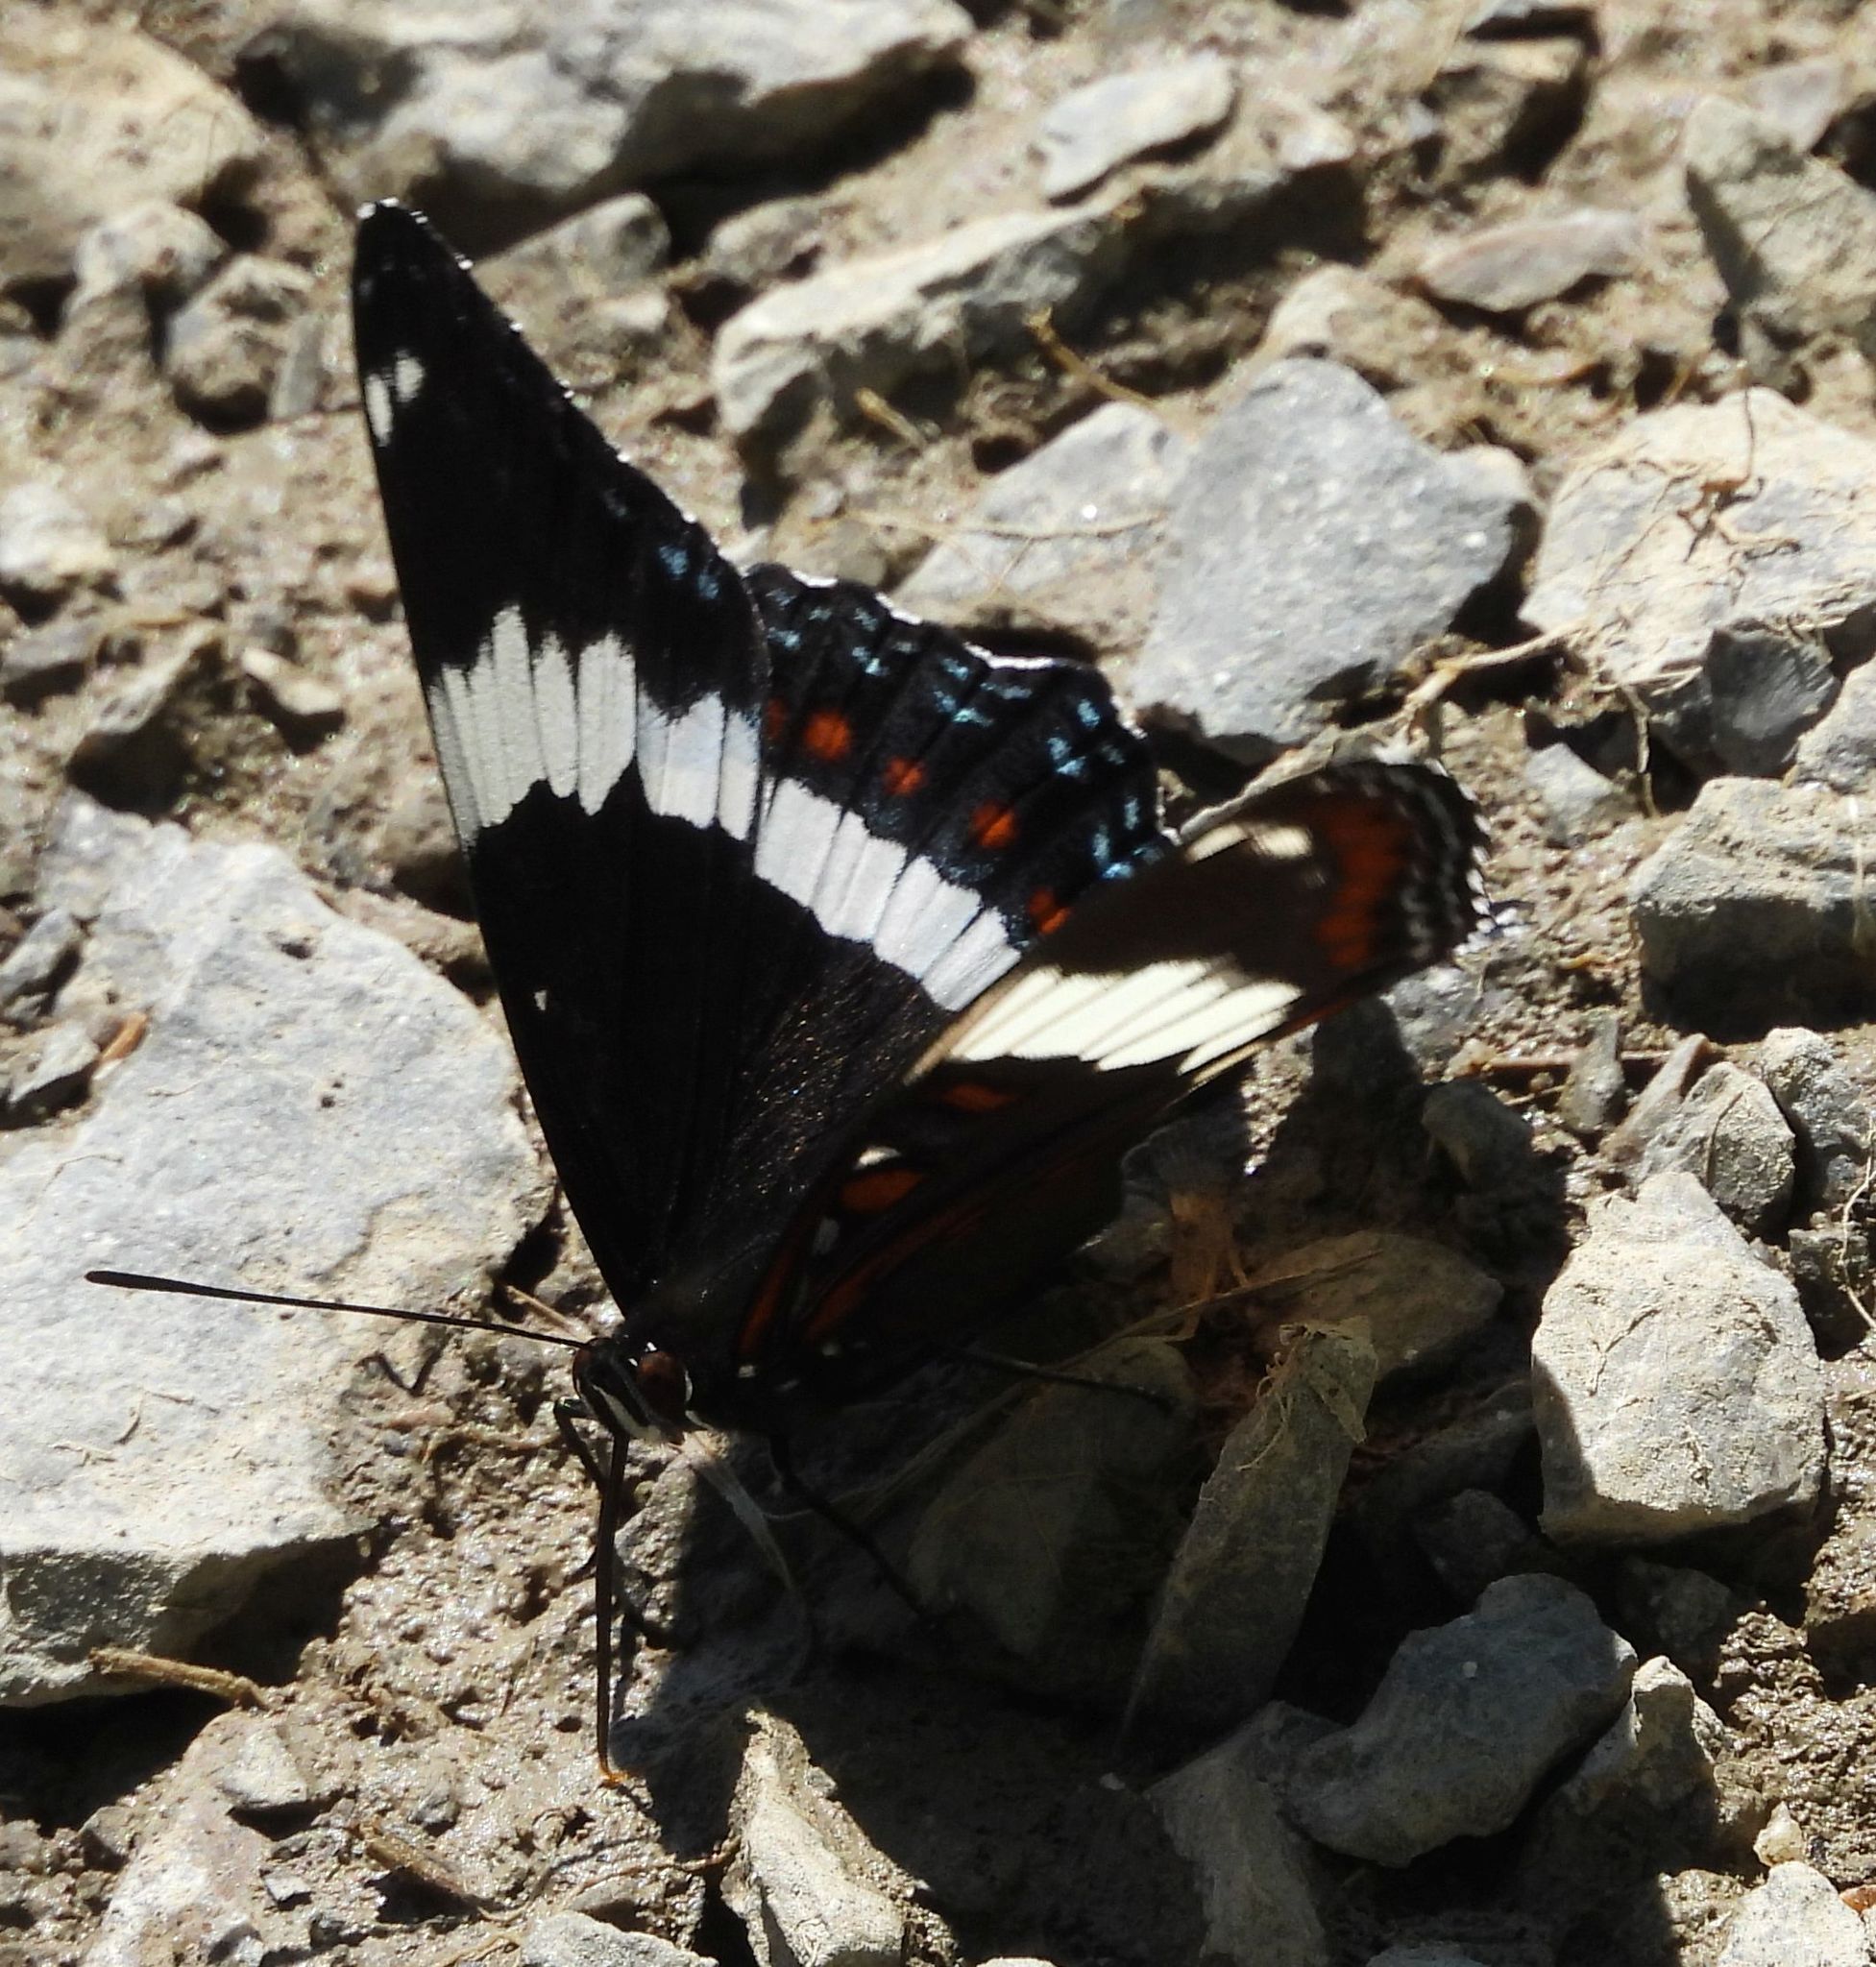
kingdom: Animalia
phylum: Arthropoda
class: Insecta
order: Lepidoptera
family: Nymphalidae
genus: Limenitis
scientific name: Limenitis arthemis
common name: Red-spotted admiral
